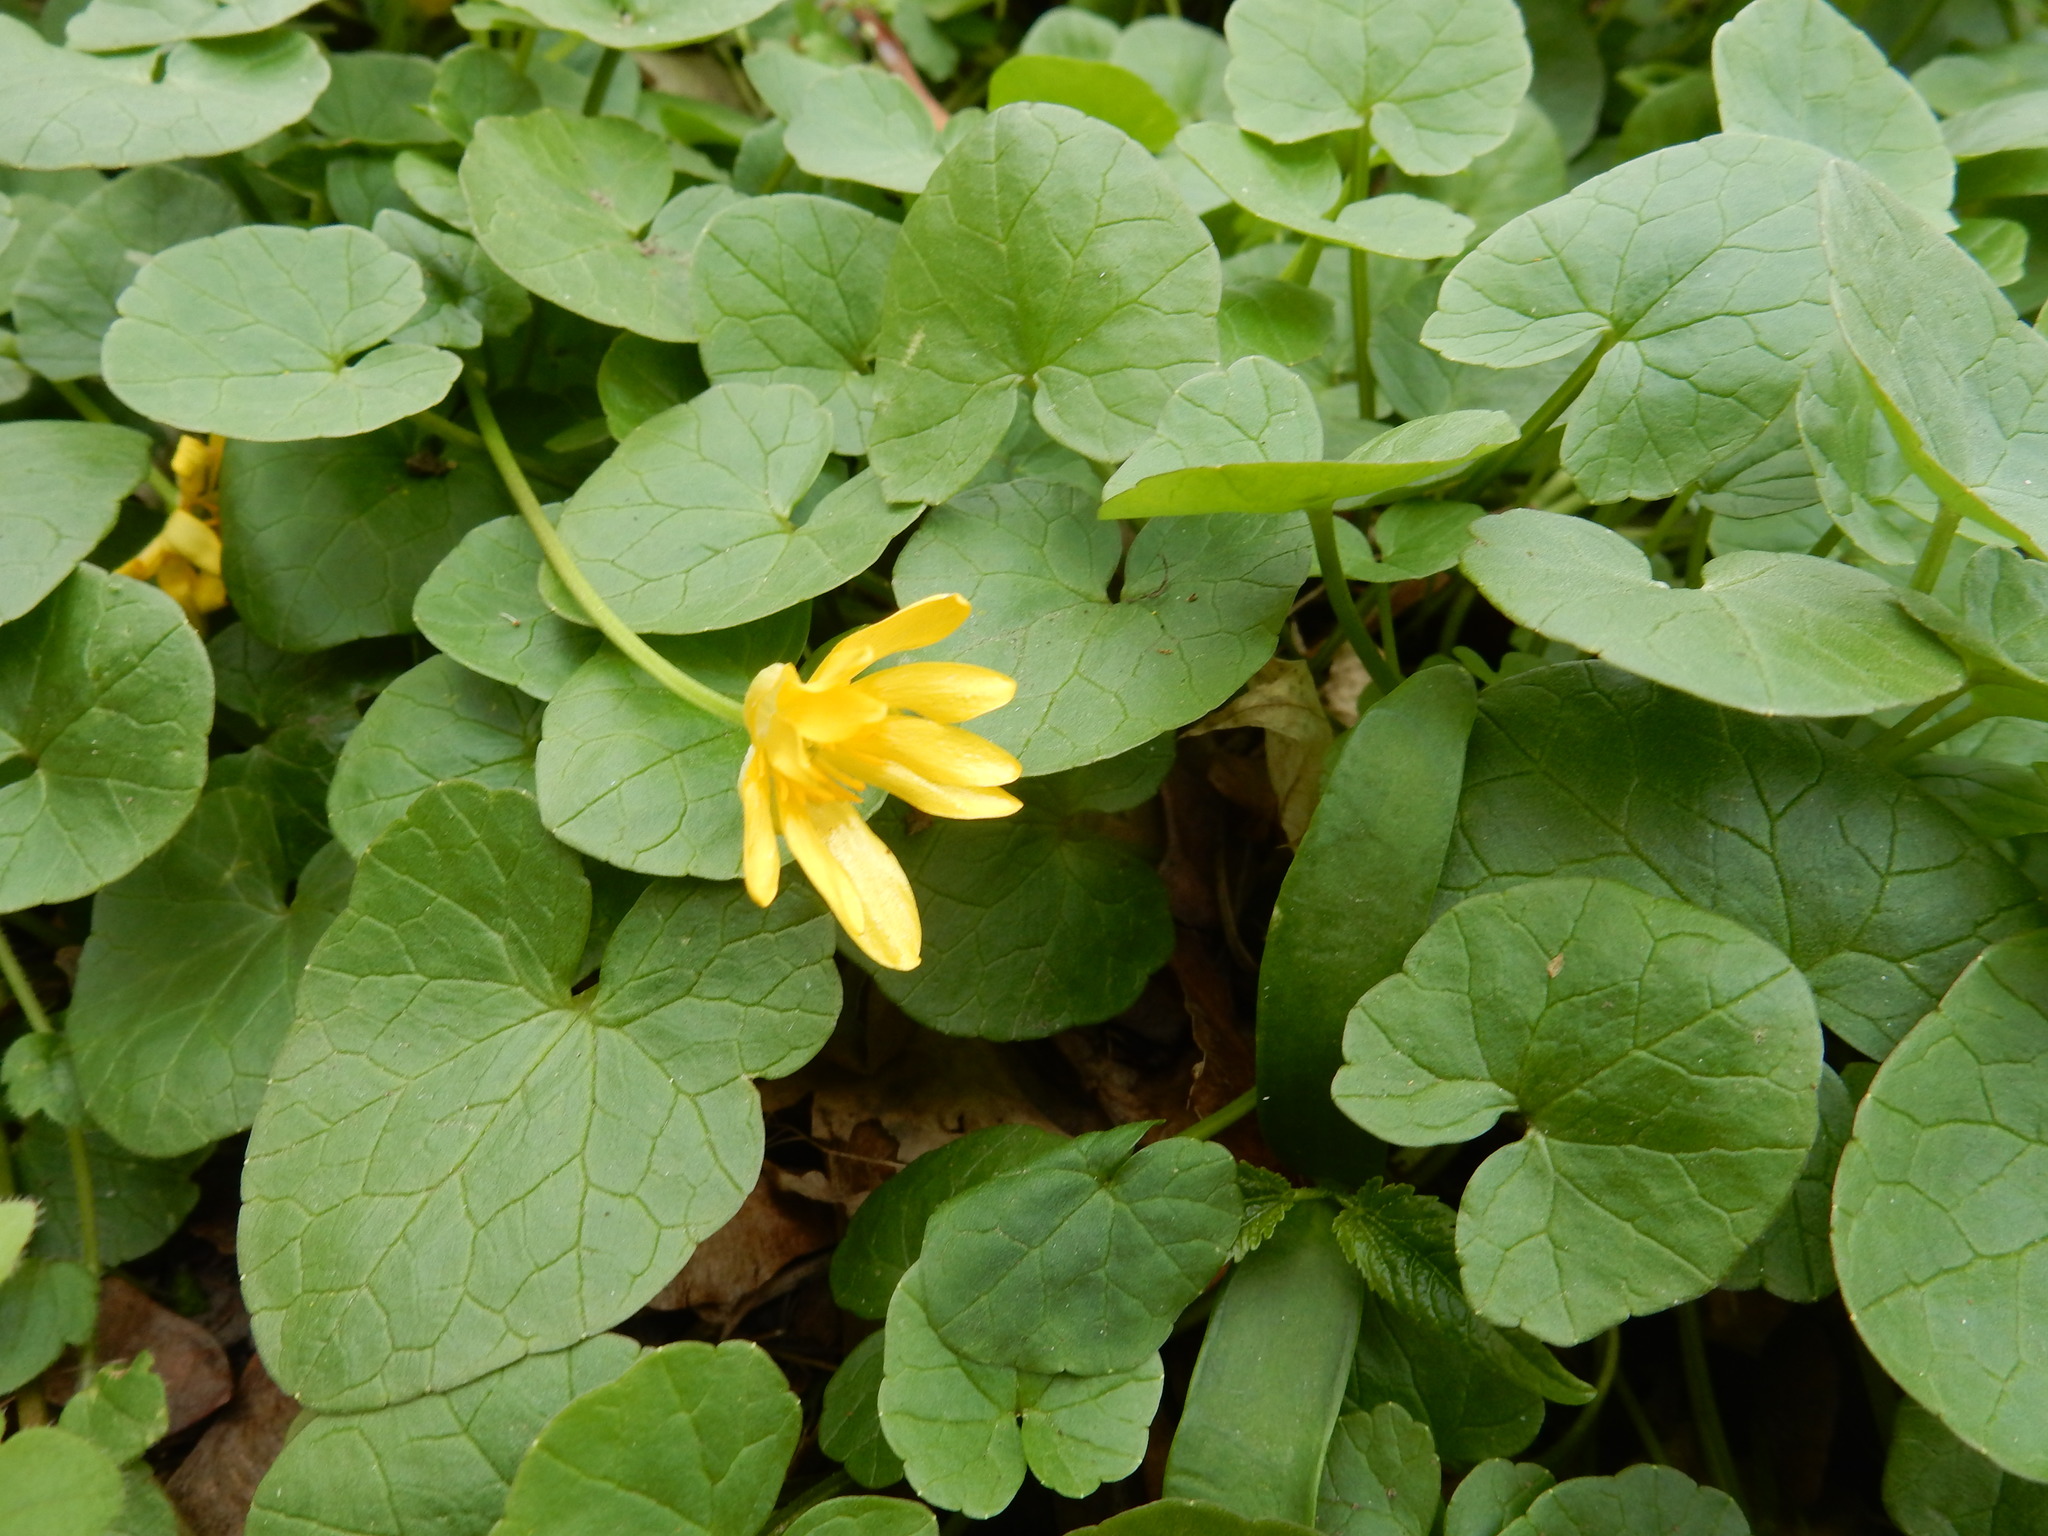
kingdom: Plantae
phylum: Tracheophyta
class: Magnoliopsida
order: Ranunculales
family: Ranunculaceae
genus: Ficaria
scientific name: Ficaria verna
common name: Lesser celandine
